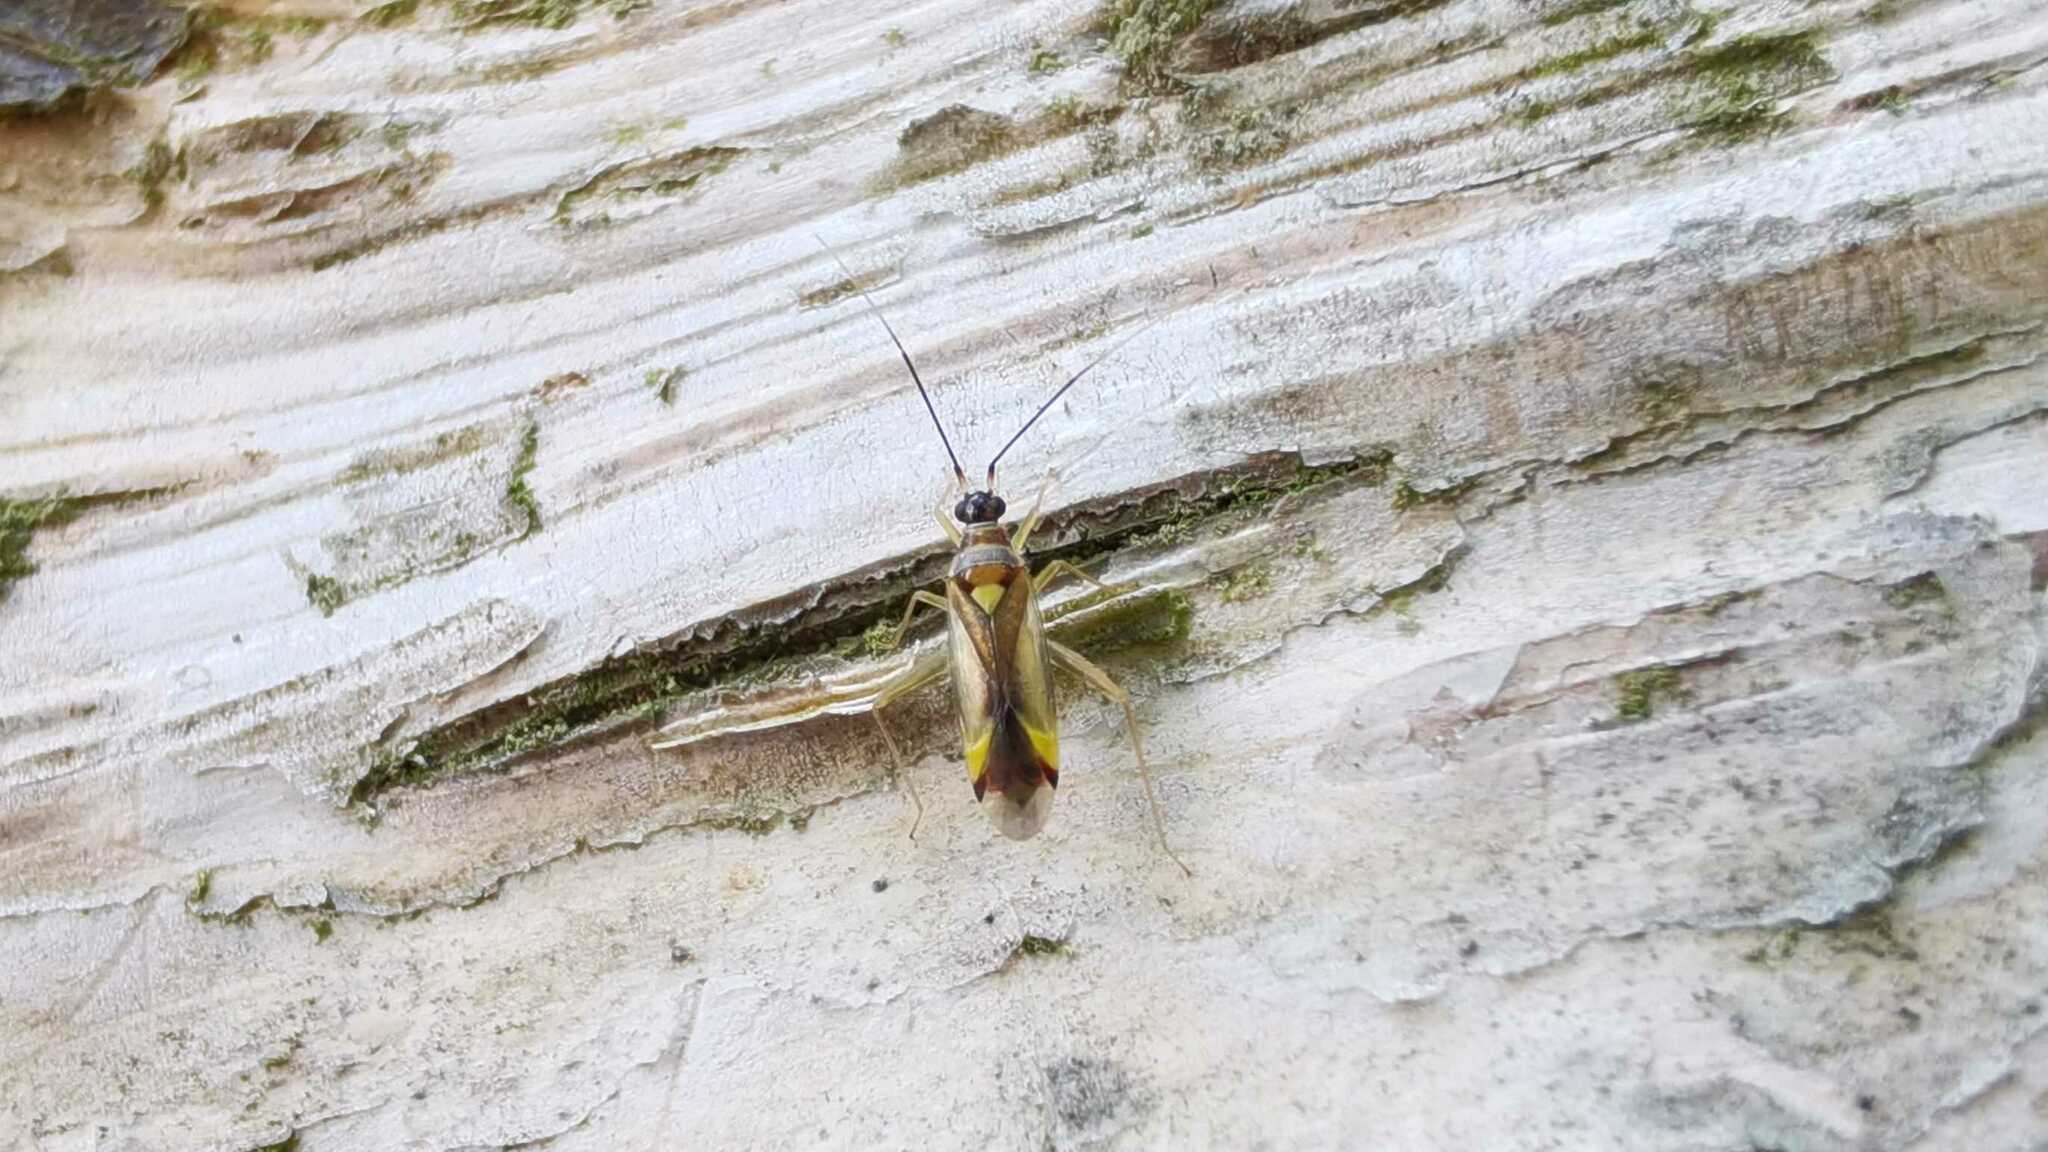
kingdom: Animalia
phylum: Arthropoda
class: Insecta
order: Hemiptera
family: Miridae
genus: Campyloneura
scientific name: Campyloneura virgula
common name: Predatory bug
